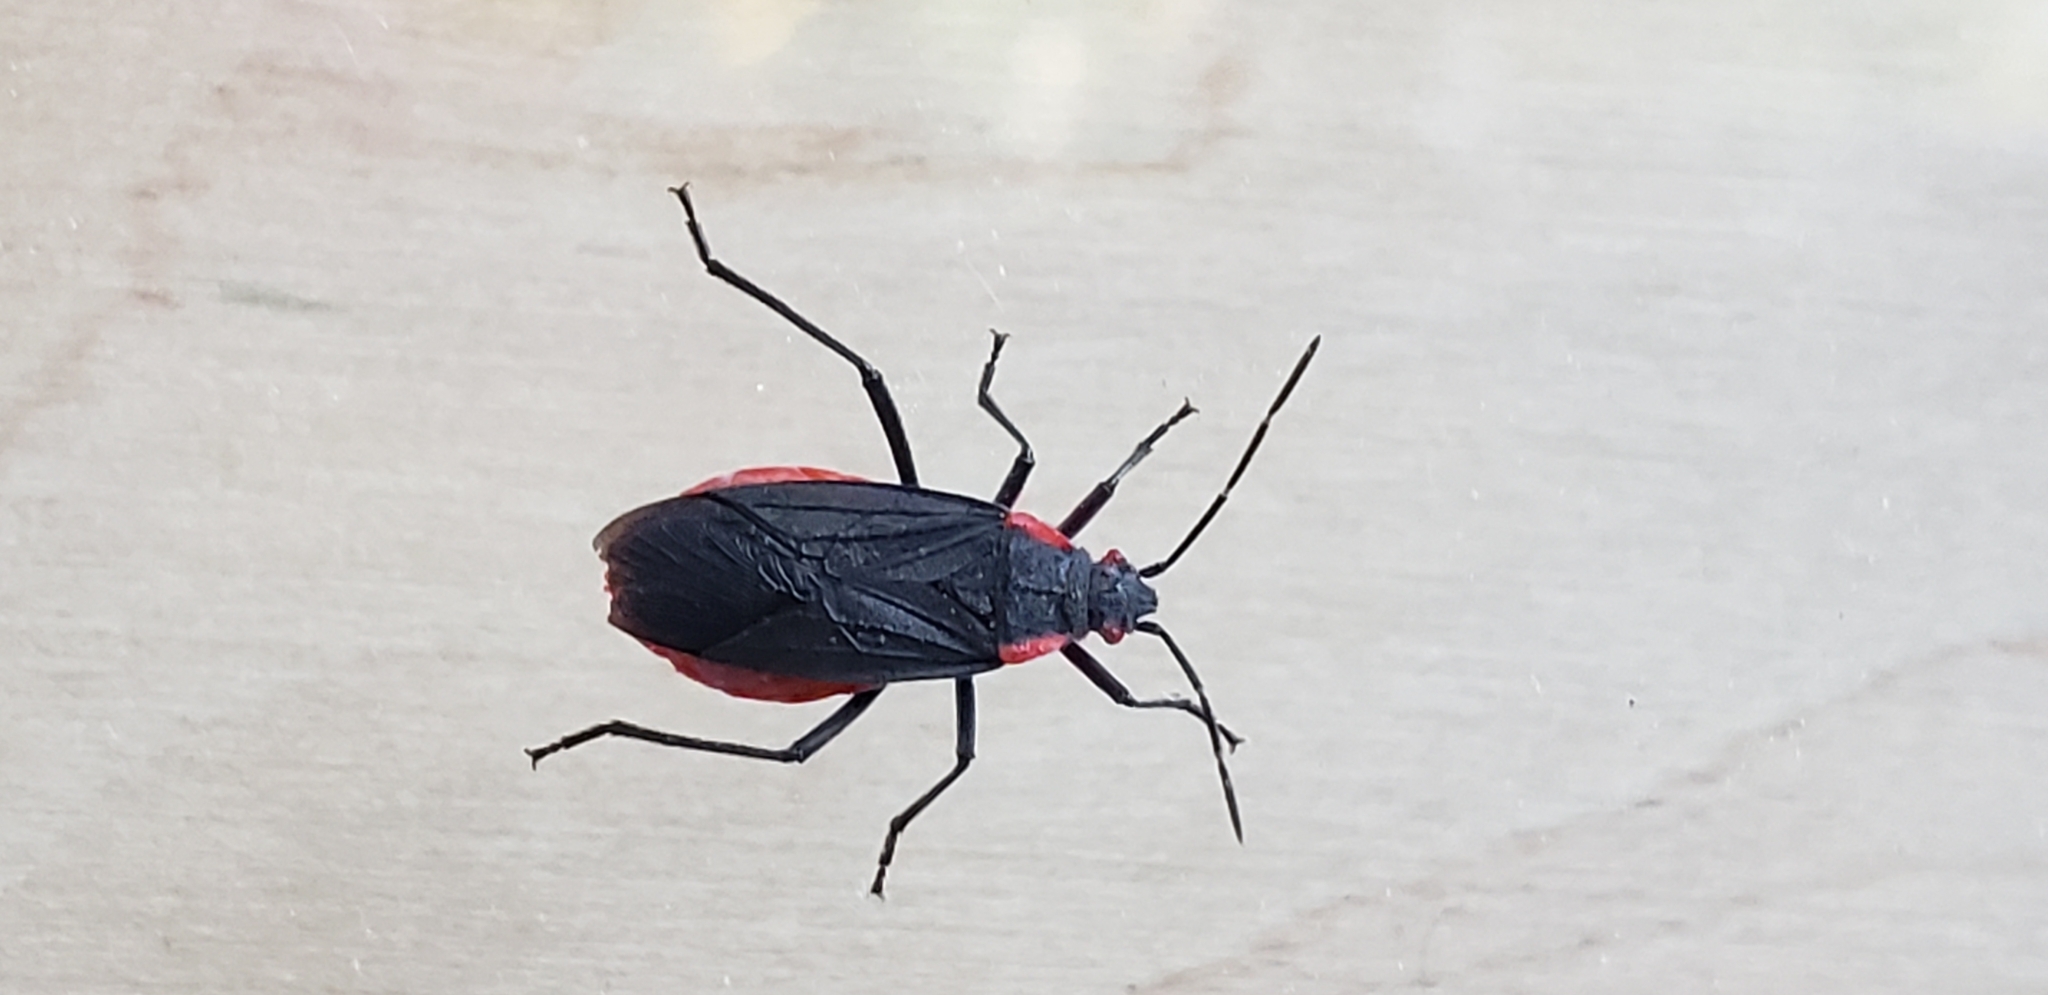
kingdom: Animalia
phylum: Arthropoda
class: Insecta
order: Hemiptera
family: Rhopalidae
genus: Jadera
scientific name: Jadera haematoloma
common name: Red-shouldered bug
